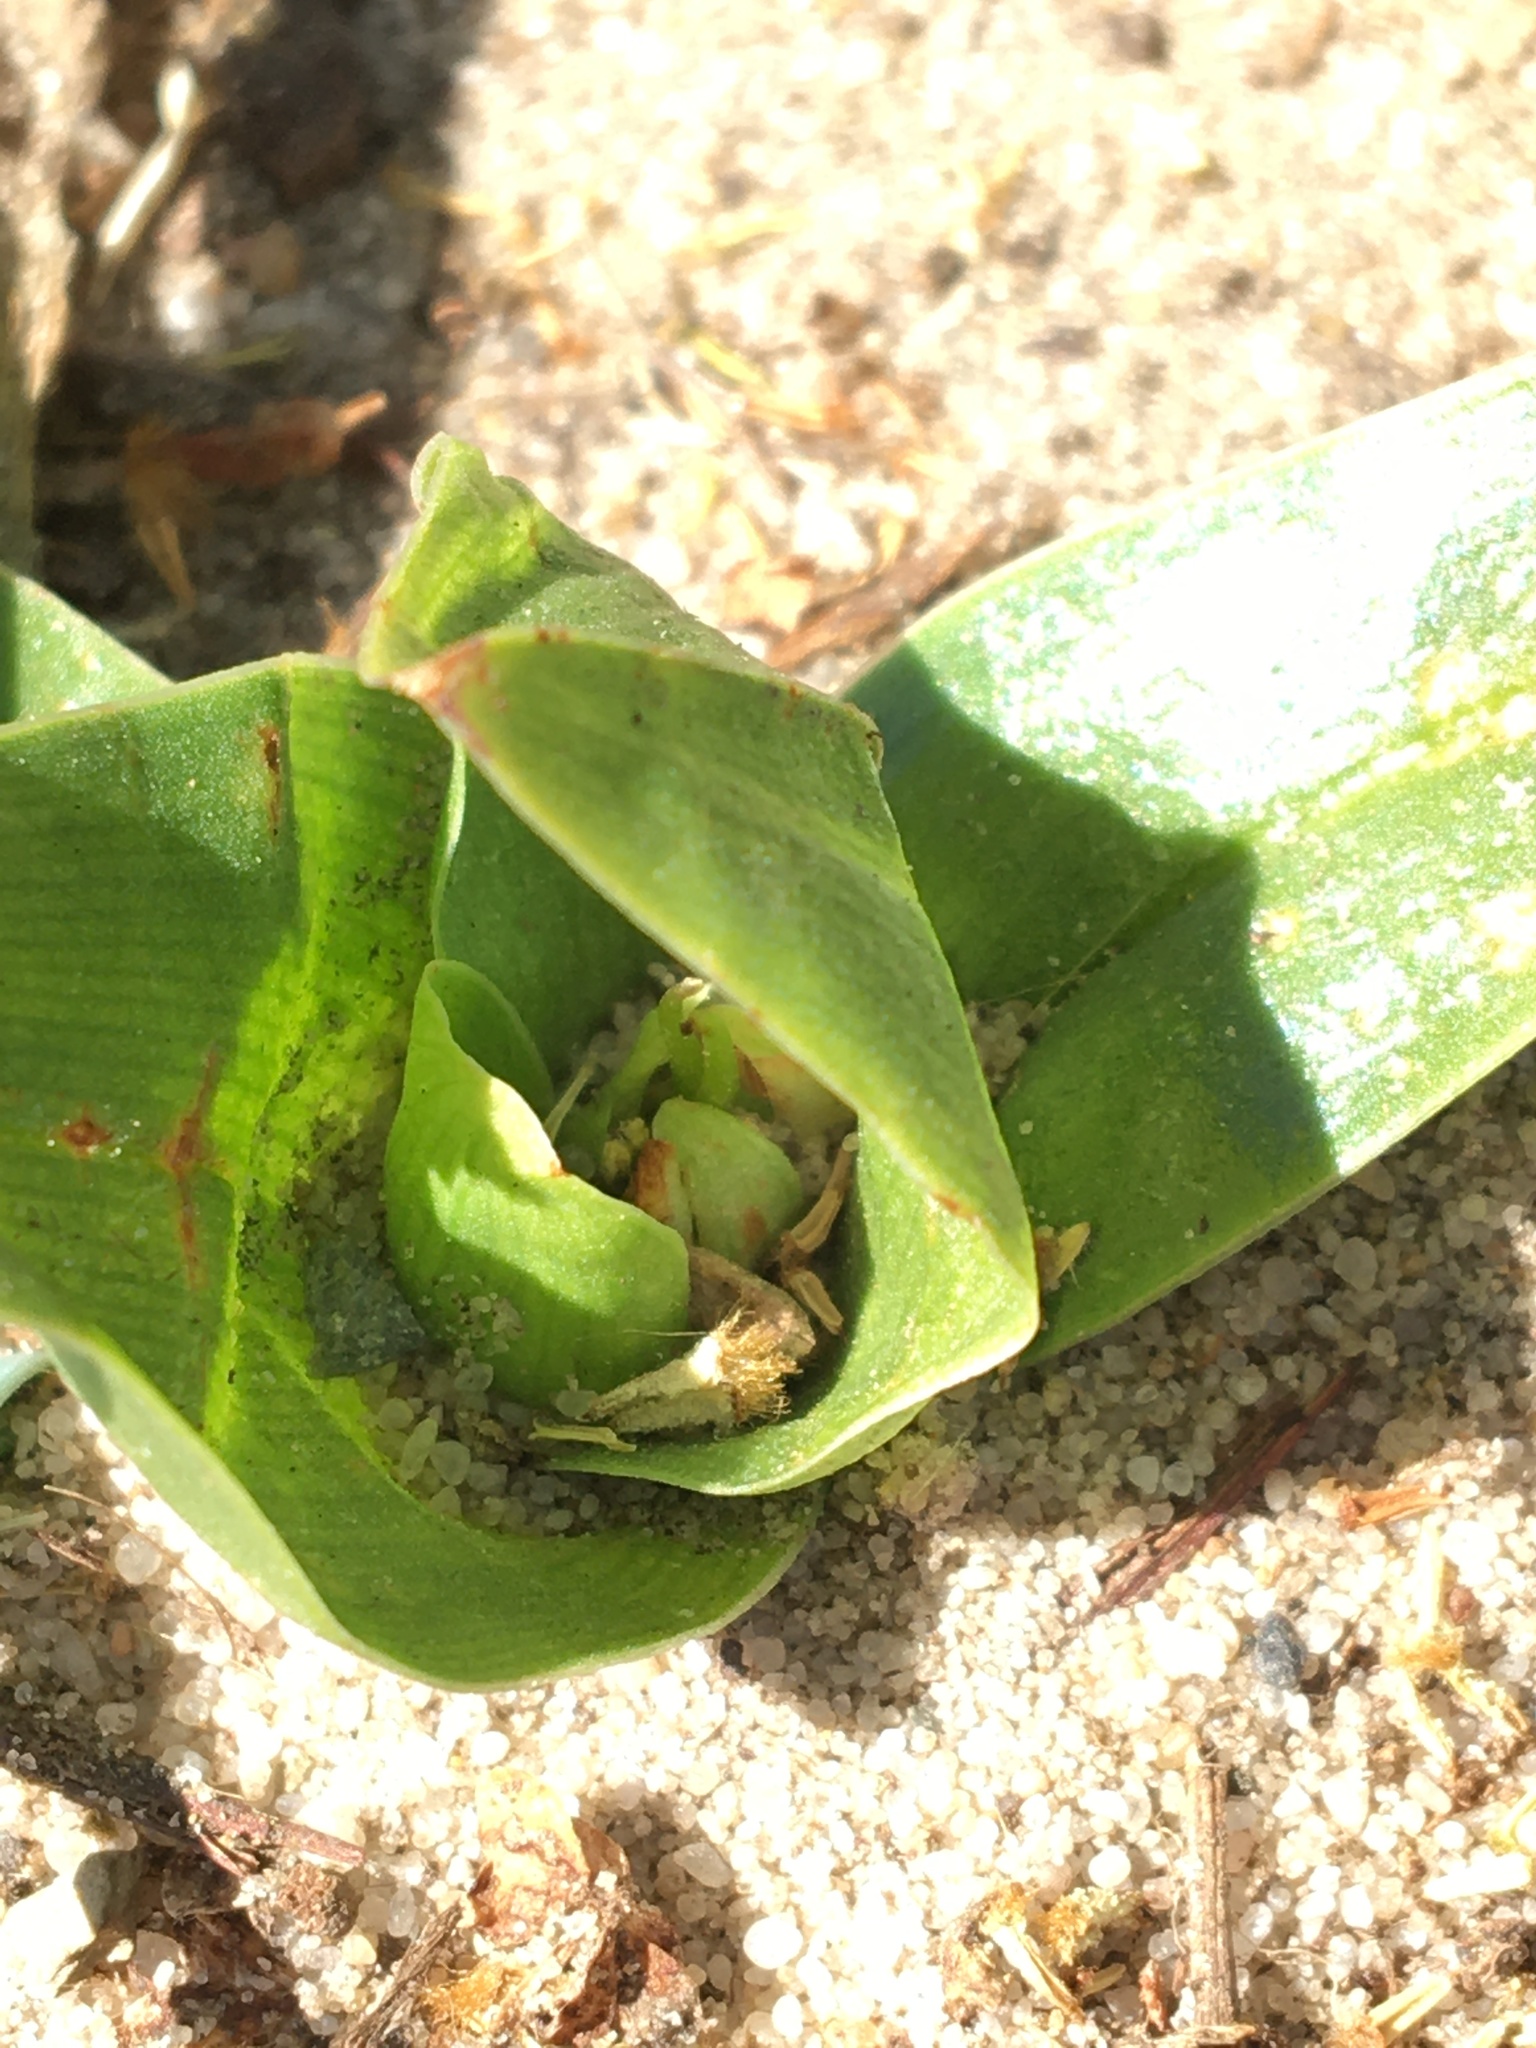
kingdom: Plantae
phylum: Tracheophyta
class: Liliopsida
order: Liliales
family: Colchicaceae
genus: Colchicum
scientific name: Colchicum eucomoides
